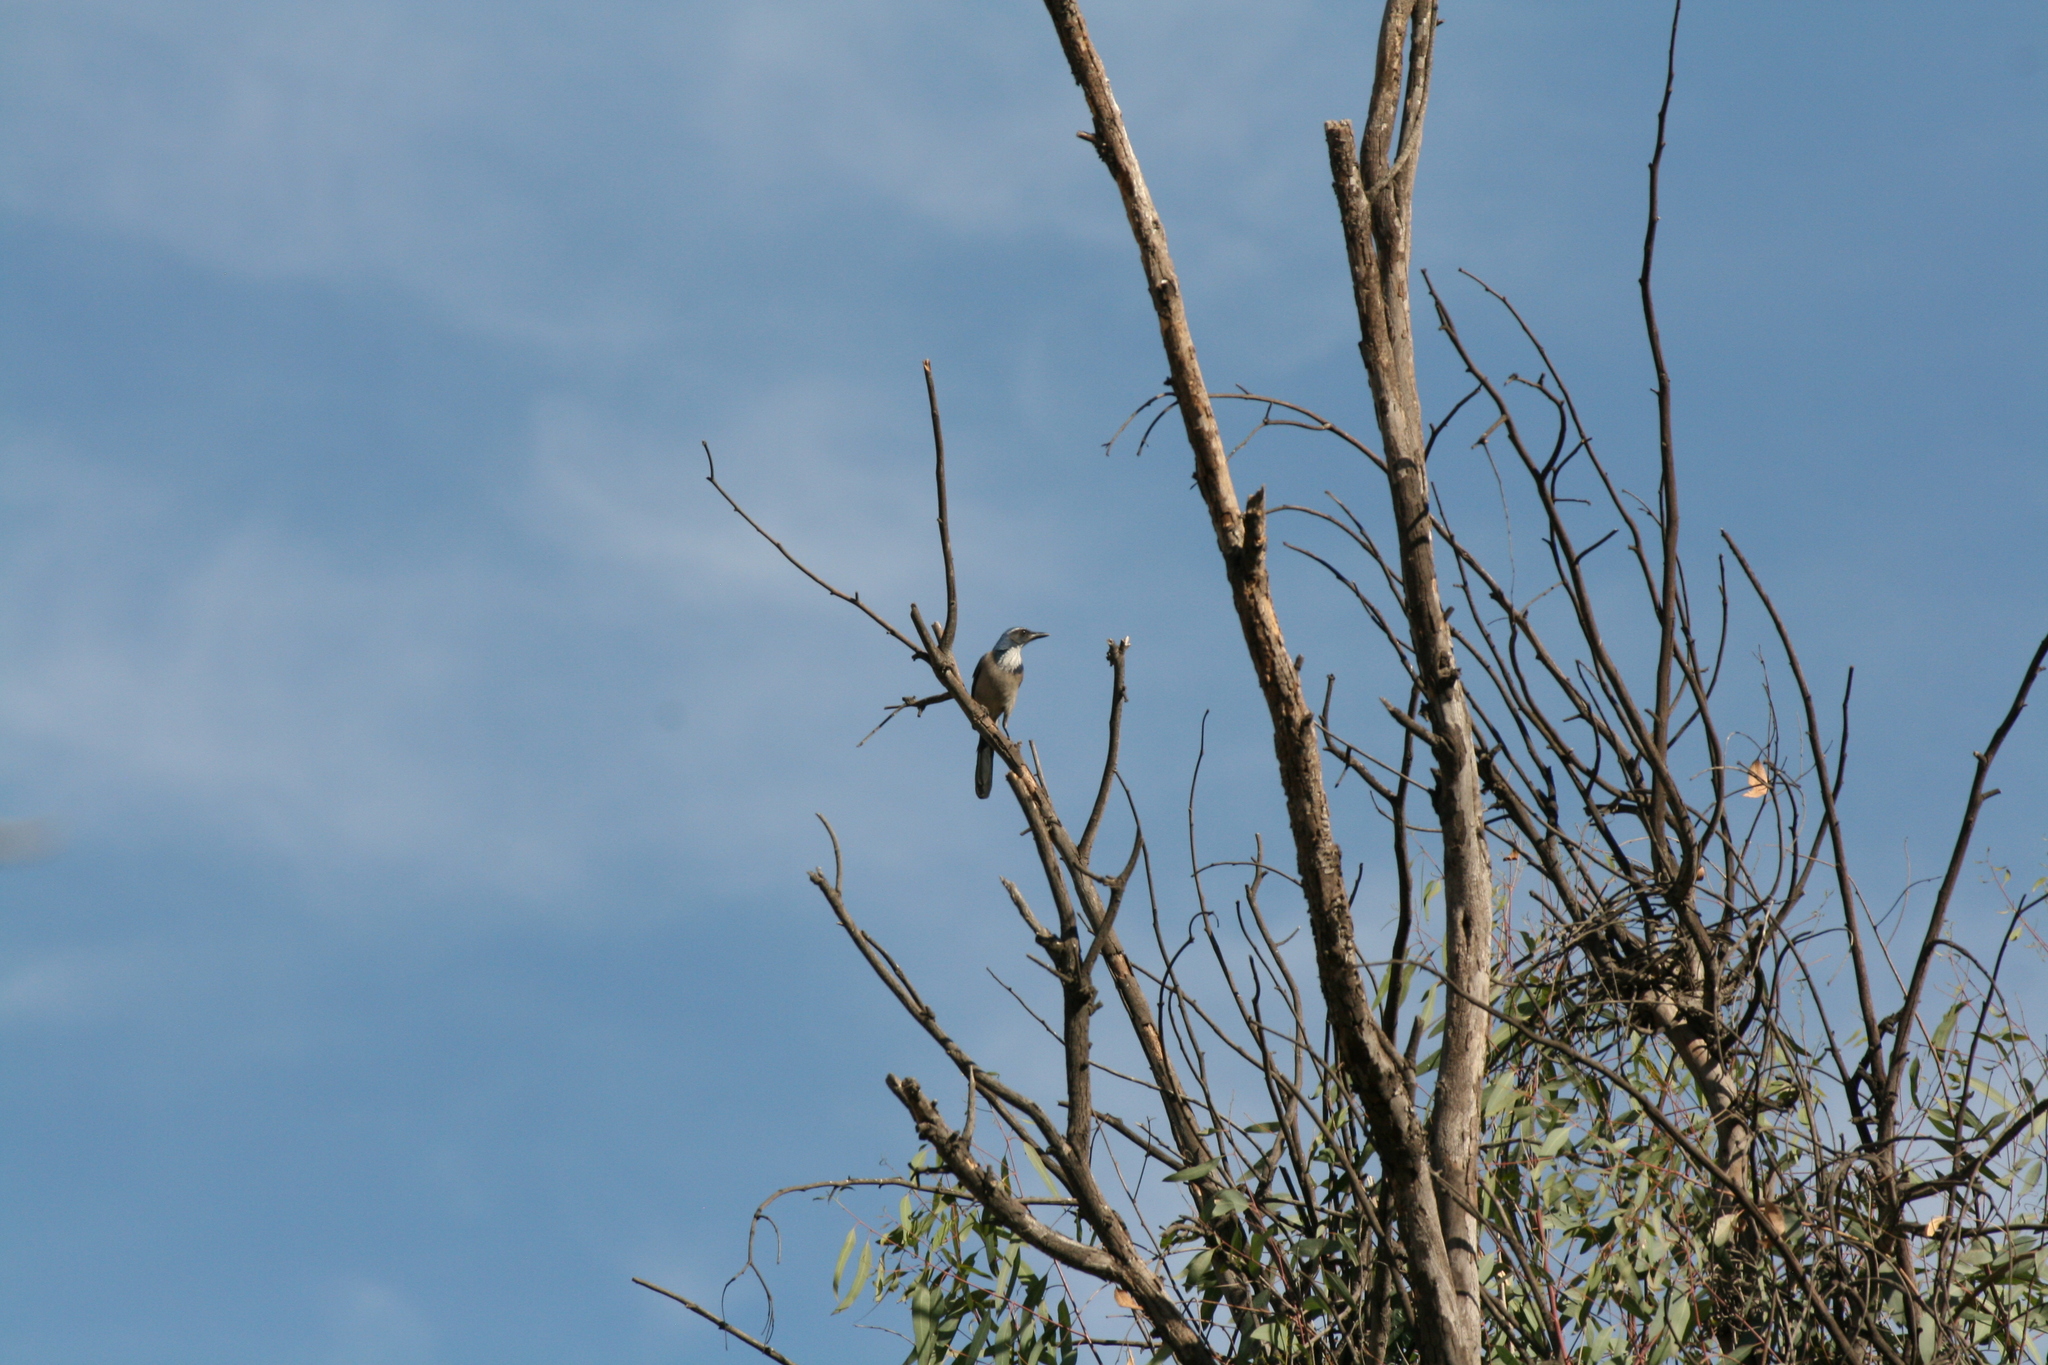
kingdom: Animalia
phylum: Chordata
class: Aves
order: Passeriformes
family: Corvidae
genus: Aphelocoma
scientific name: Aphelocoma californica
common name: California scrub-jay
